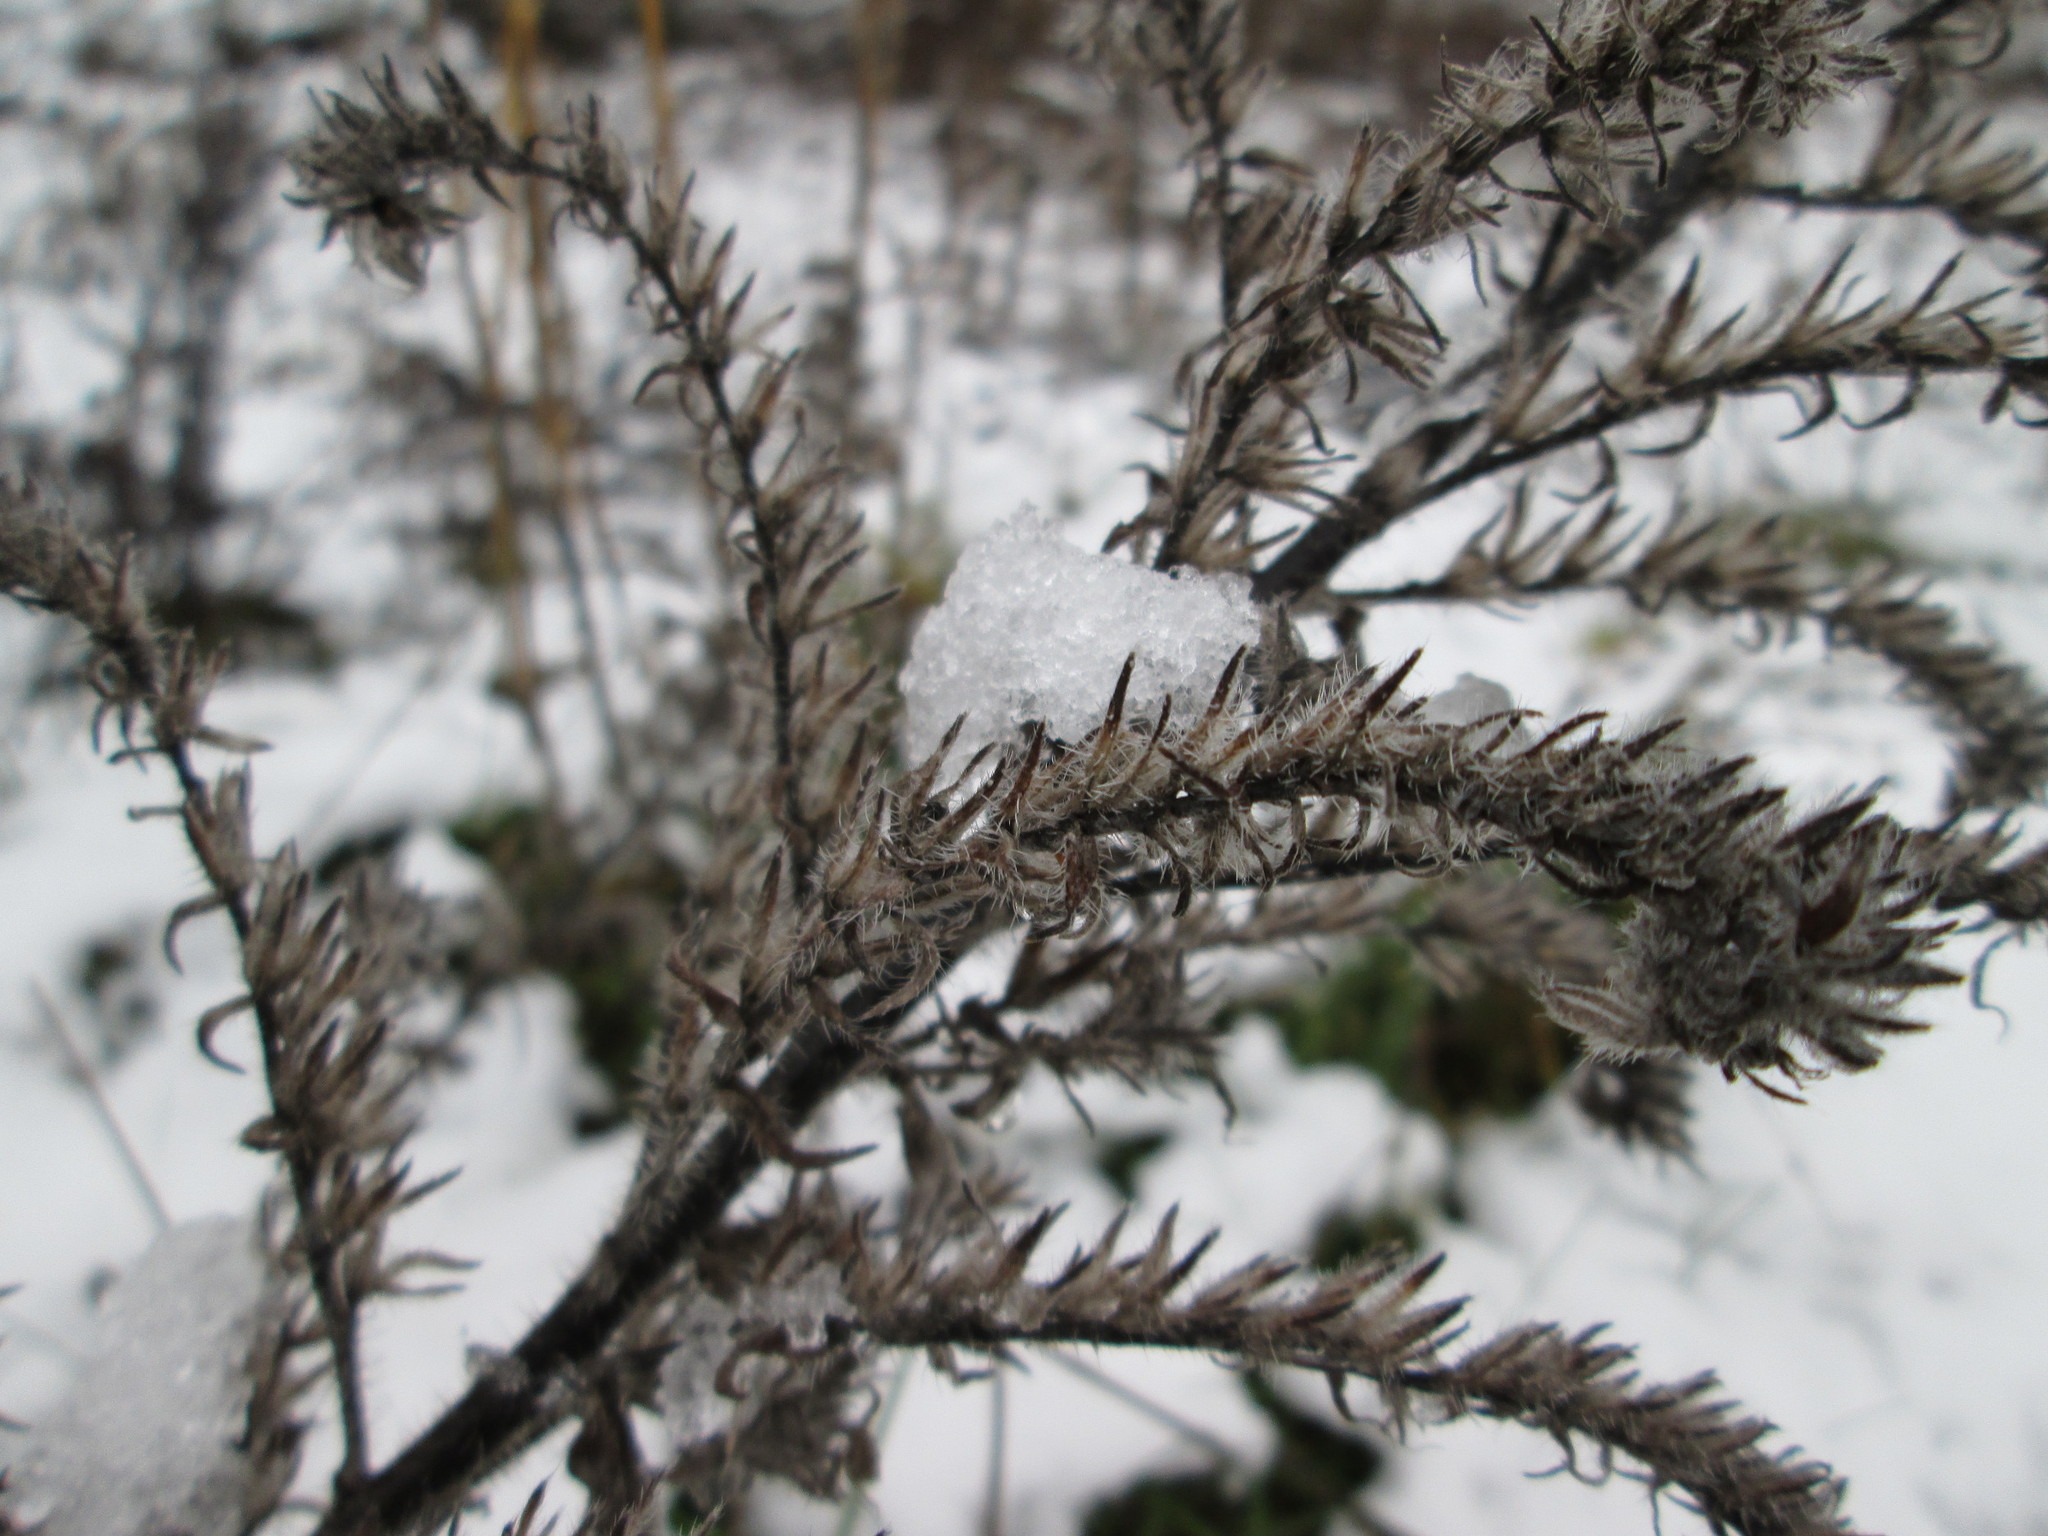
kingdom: Plantae
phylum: Tracheophyta
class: Magnoliopsida
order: Boraginales
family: Boraginaceae
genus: Echium
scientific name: Echium vulgare
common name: Common viper's bugloss
